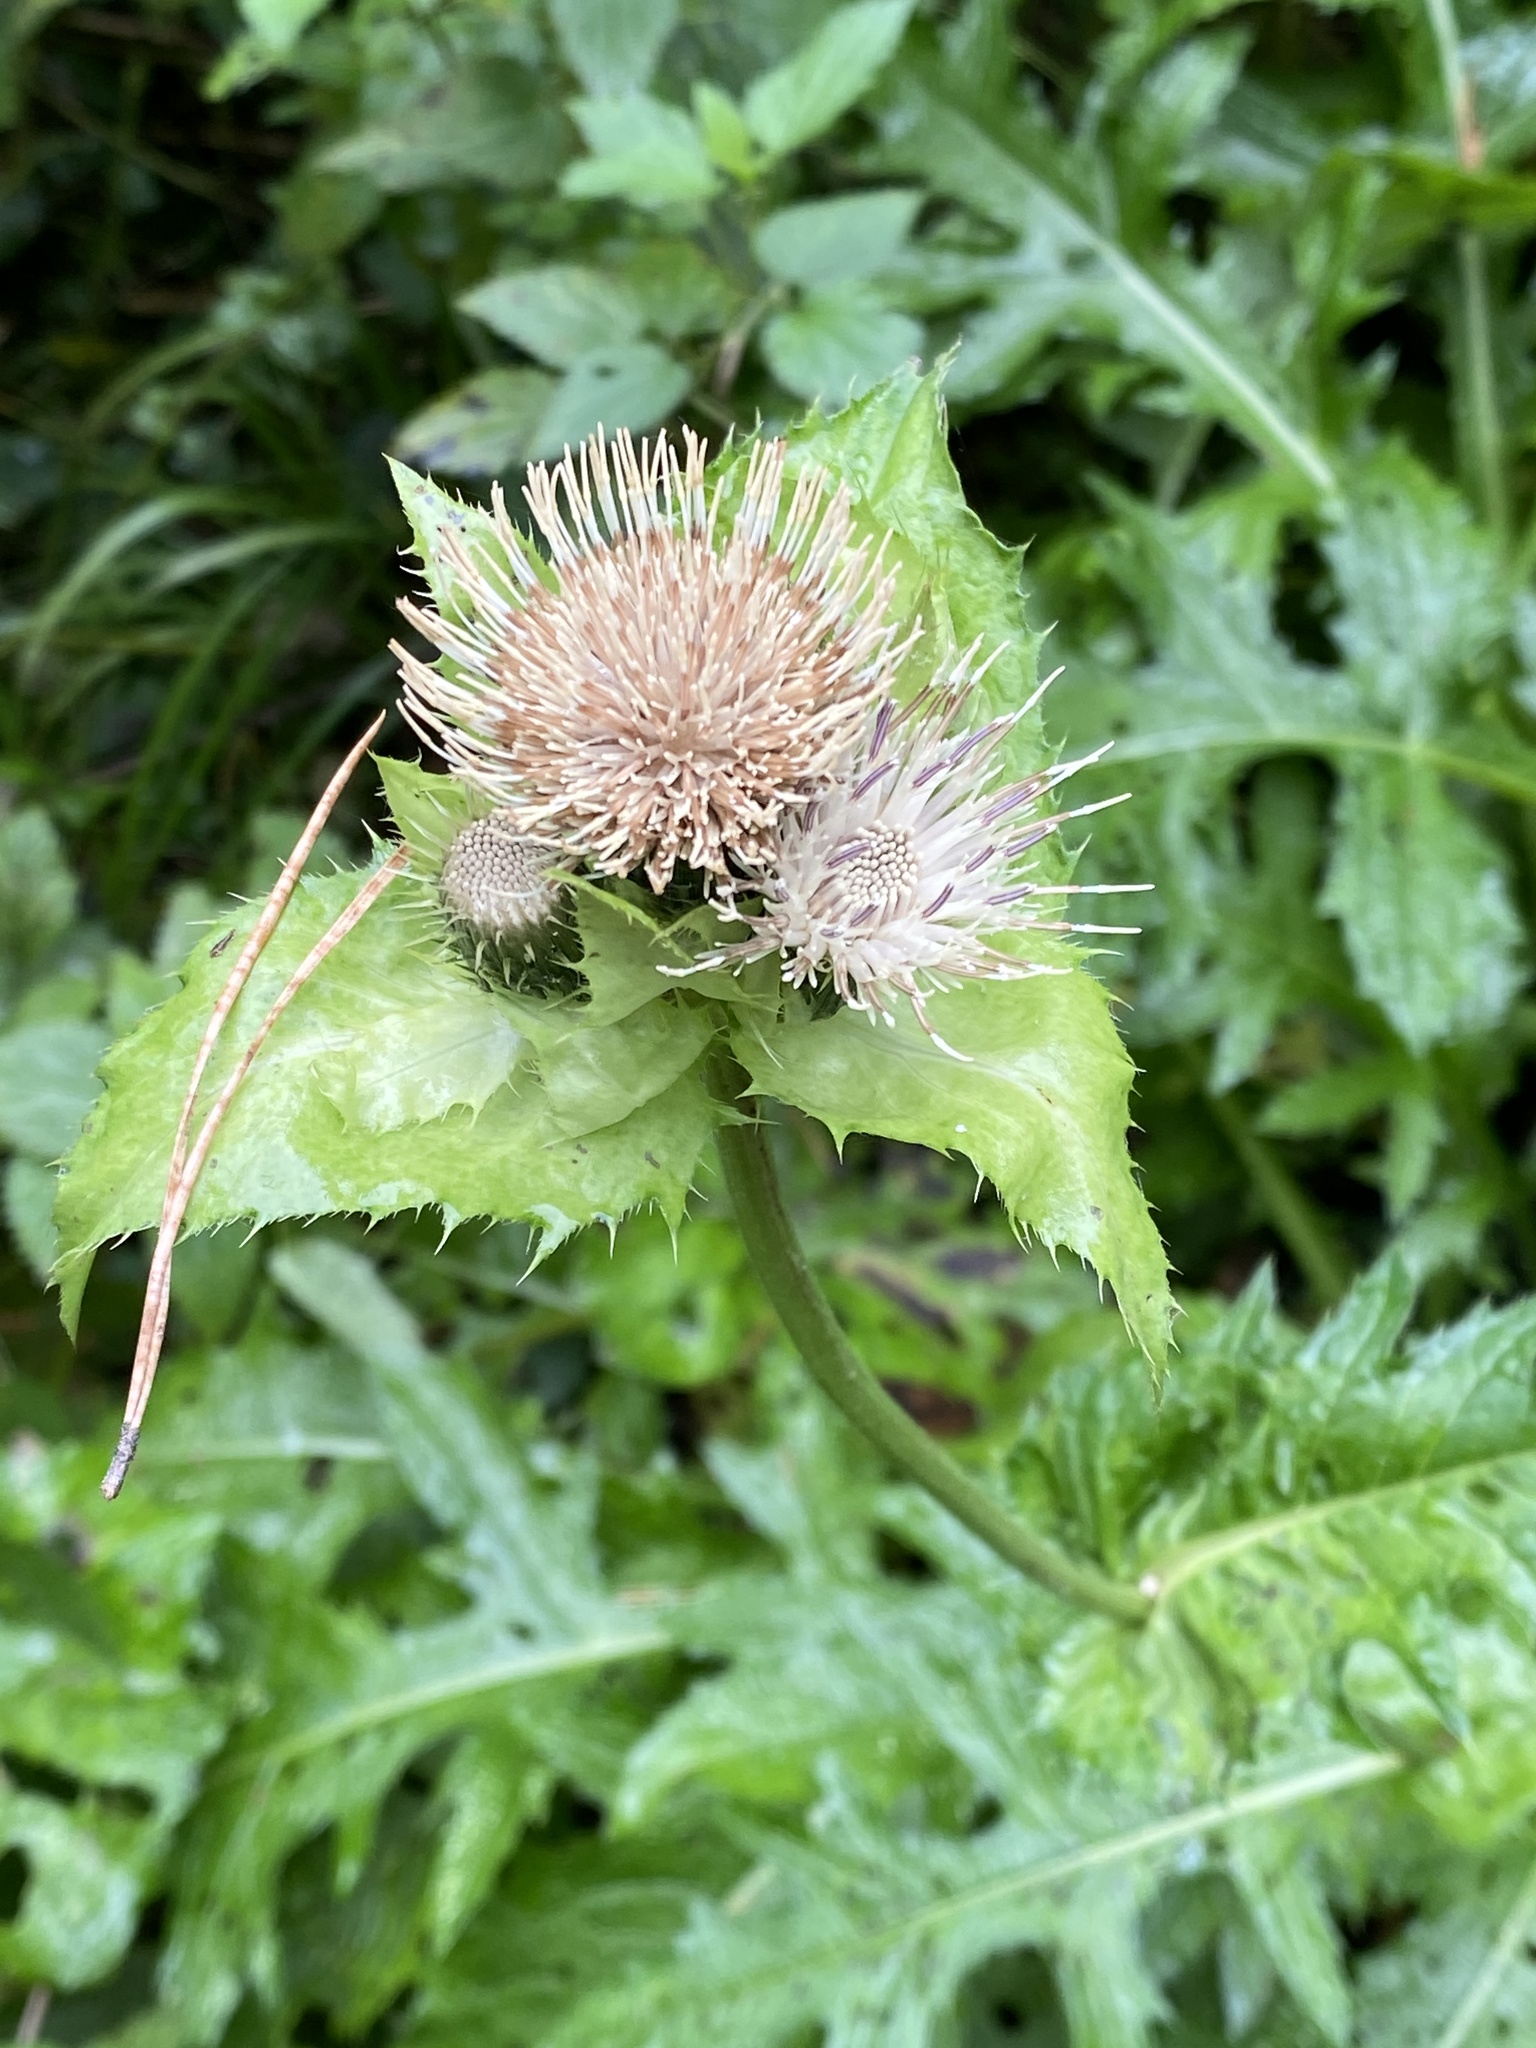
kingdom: Plantae
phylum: Tracheophyta
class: Magnoliopsida
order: Asterales
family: Asteraceae
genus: Cirsium
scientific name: Cirsium oleraceum
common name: Cabbage thistle
